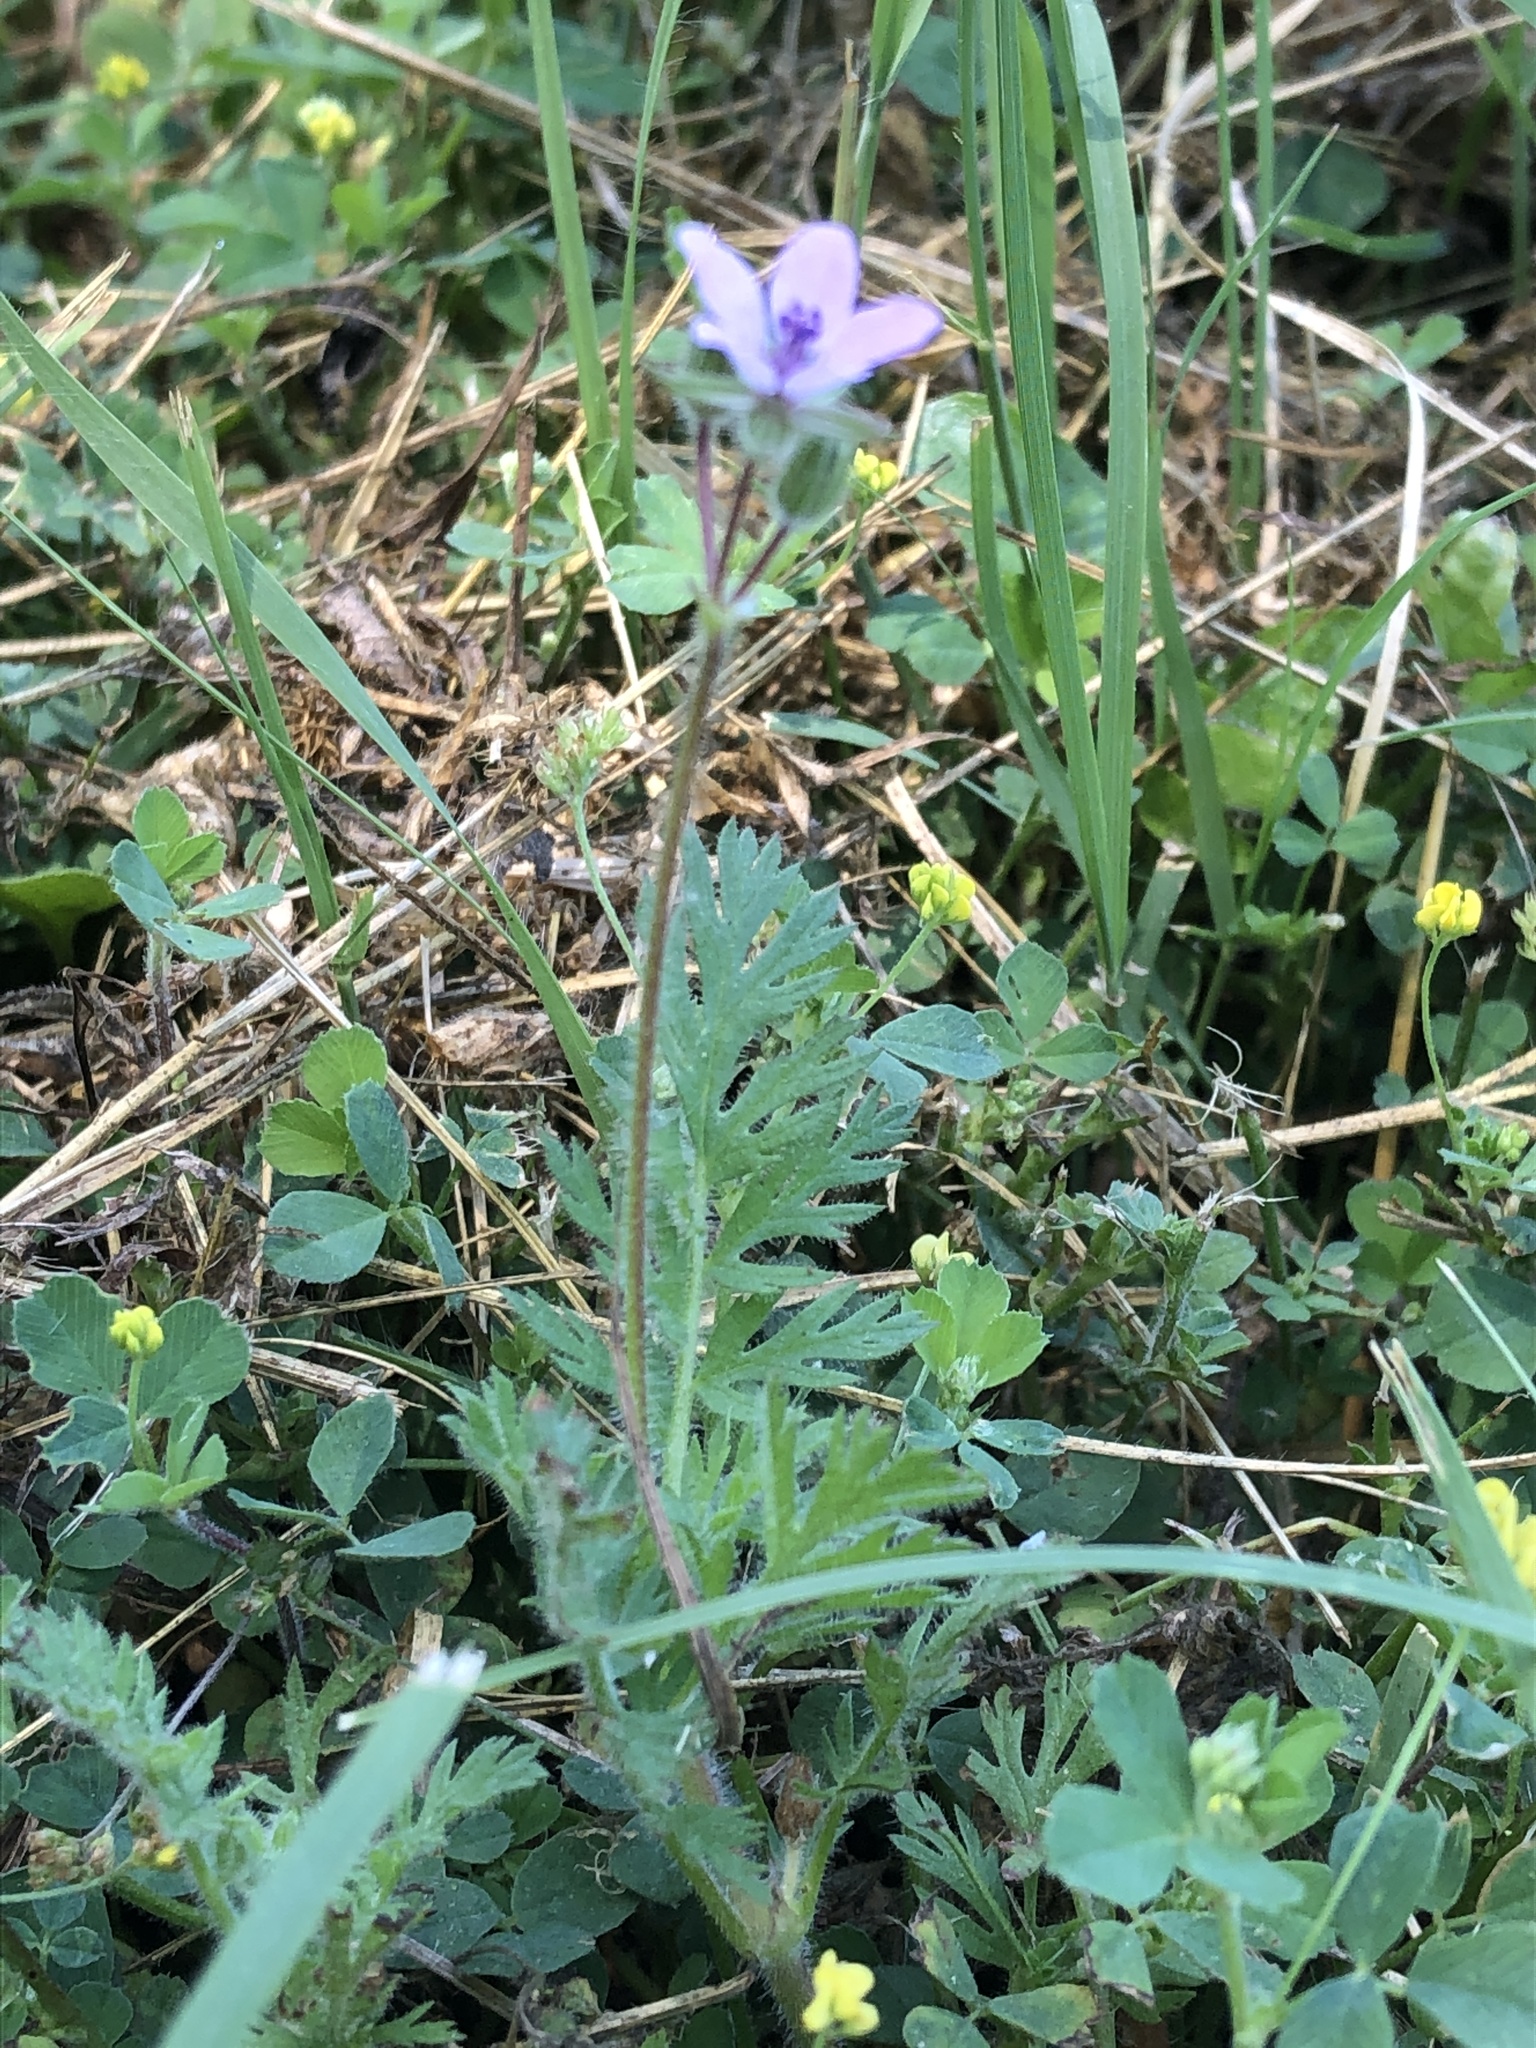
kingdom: Plantae
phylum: Tracheophyta
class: Magnoliopsida
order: Geraniales
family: Geraniaceae
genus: Erodium
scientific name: Erodium cicutarium
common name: Common stork's-bill
